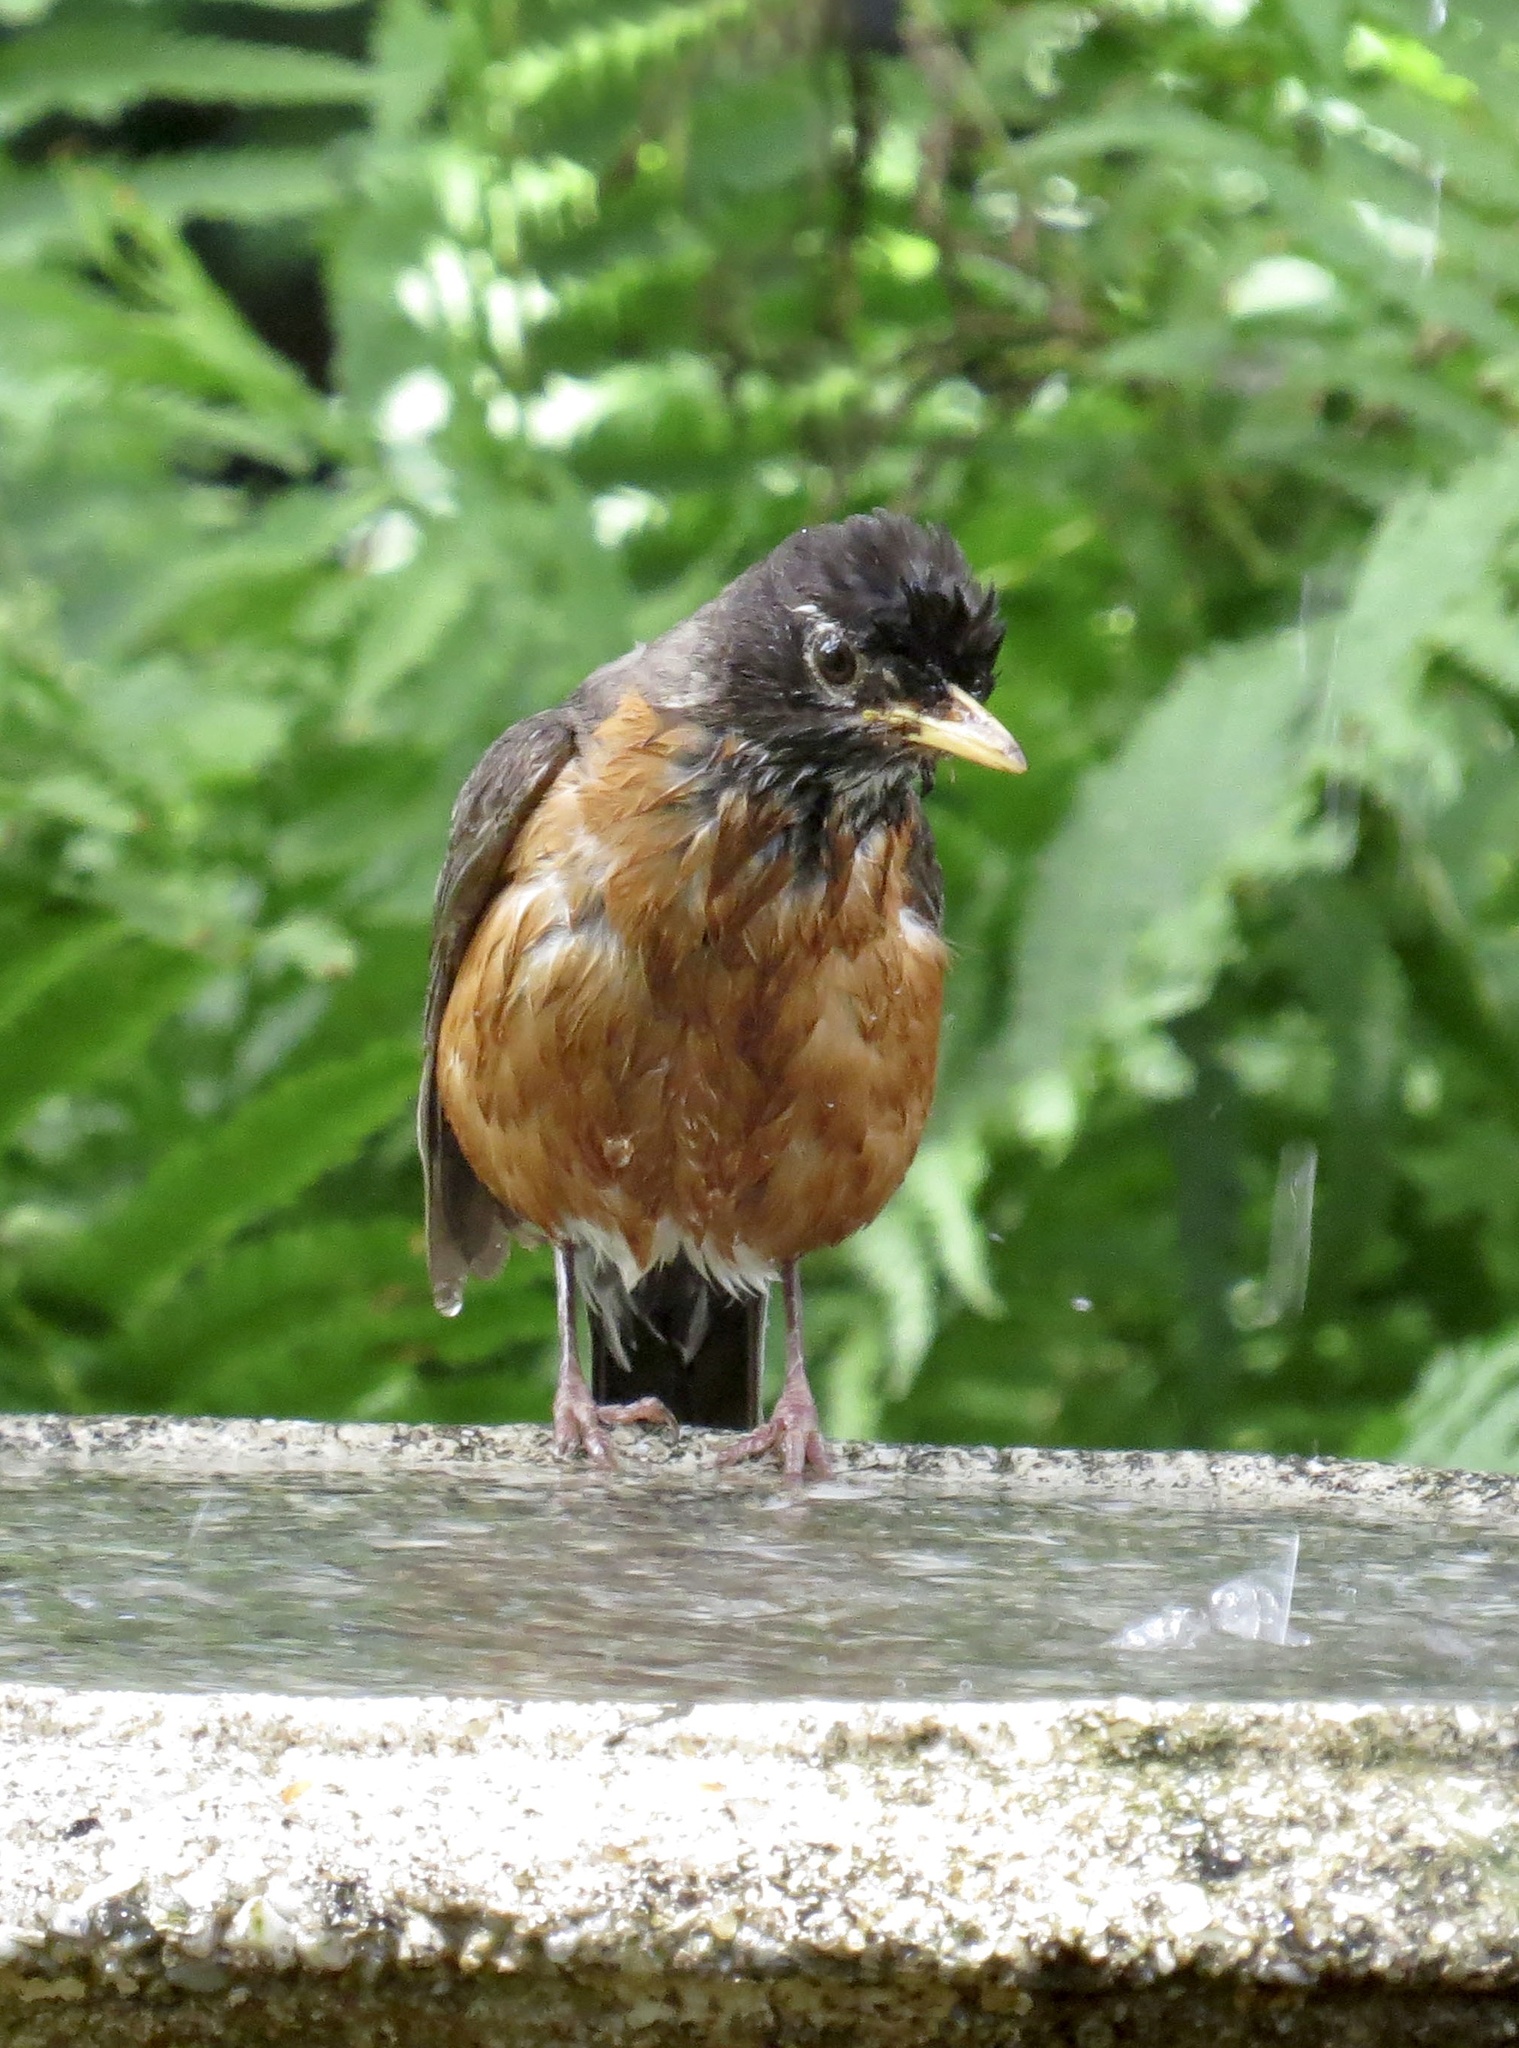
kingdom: Animalia
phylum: Chordata
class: Aves
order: Passeriformes
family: Turdidae
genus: Turdus
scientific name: Turdus migratorius
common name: American robin
